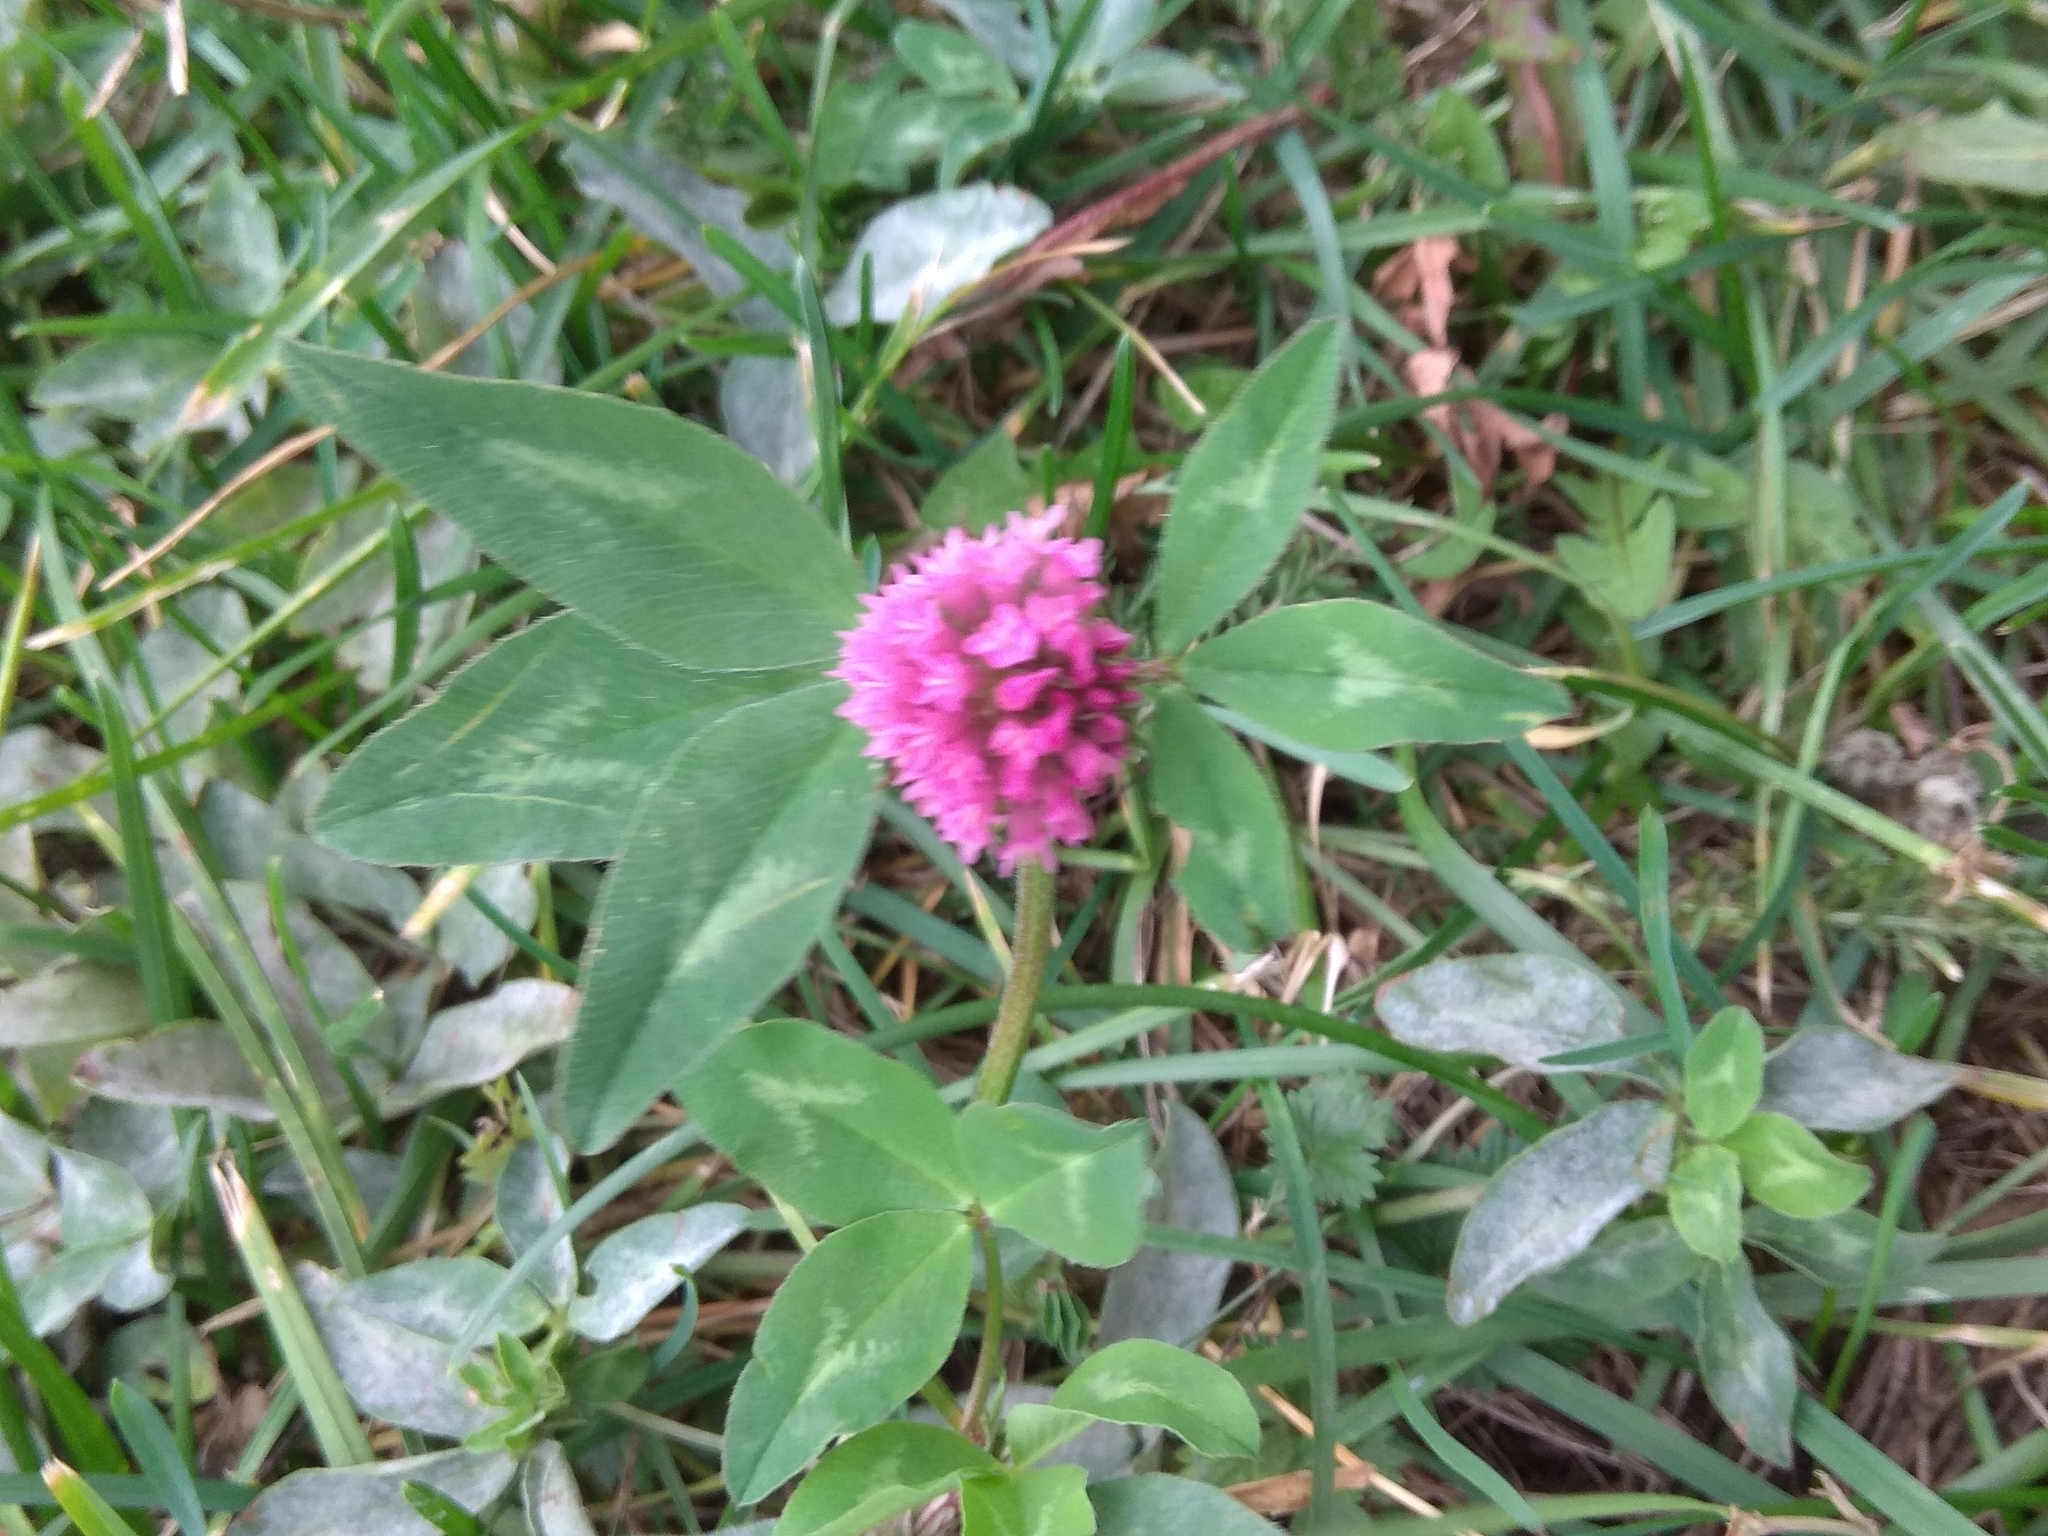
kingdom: Plantae
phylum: Tracheophyta
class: Magnoliopsida
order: Fabales
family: Fabaceae
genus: Trifolium
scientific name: Trifolium pratense
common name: Red clover
